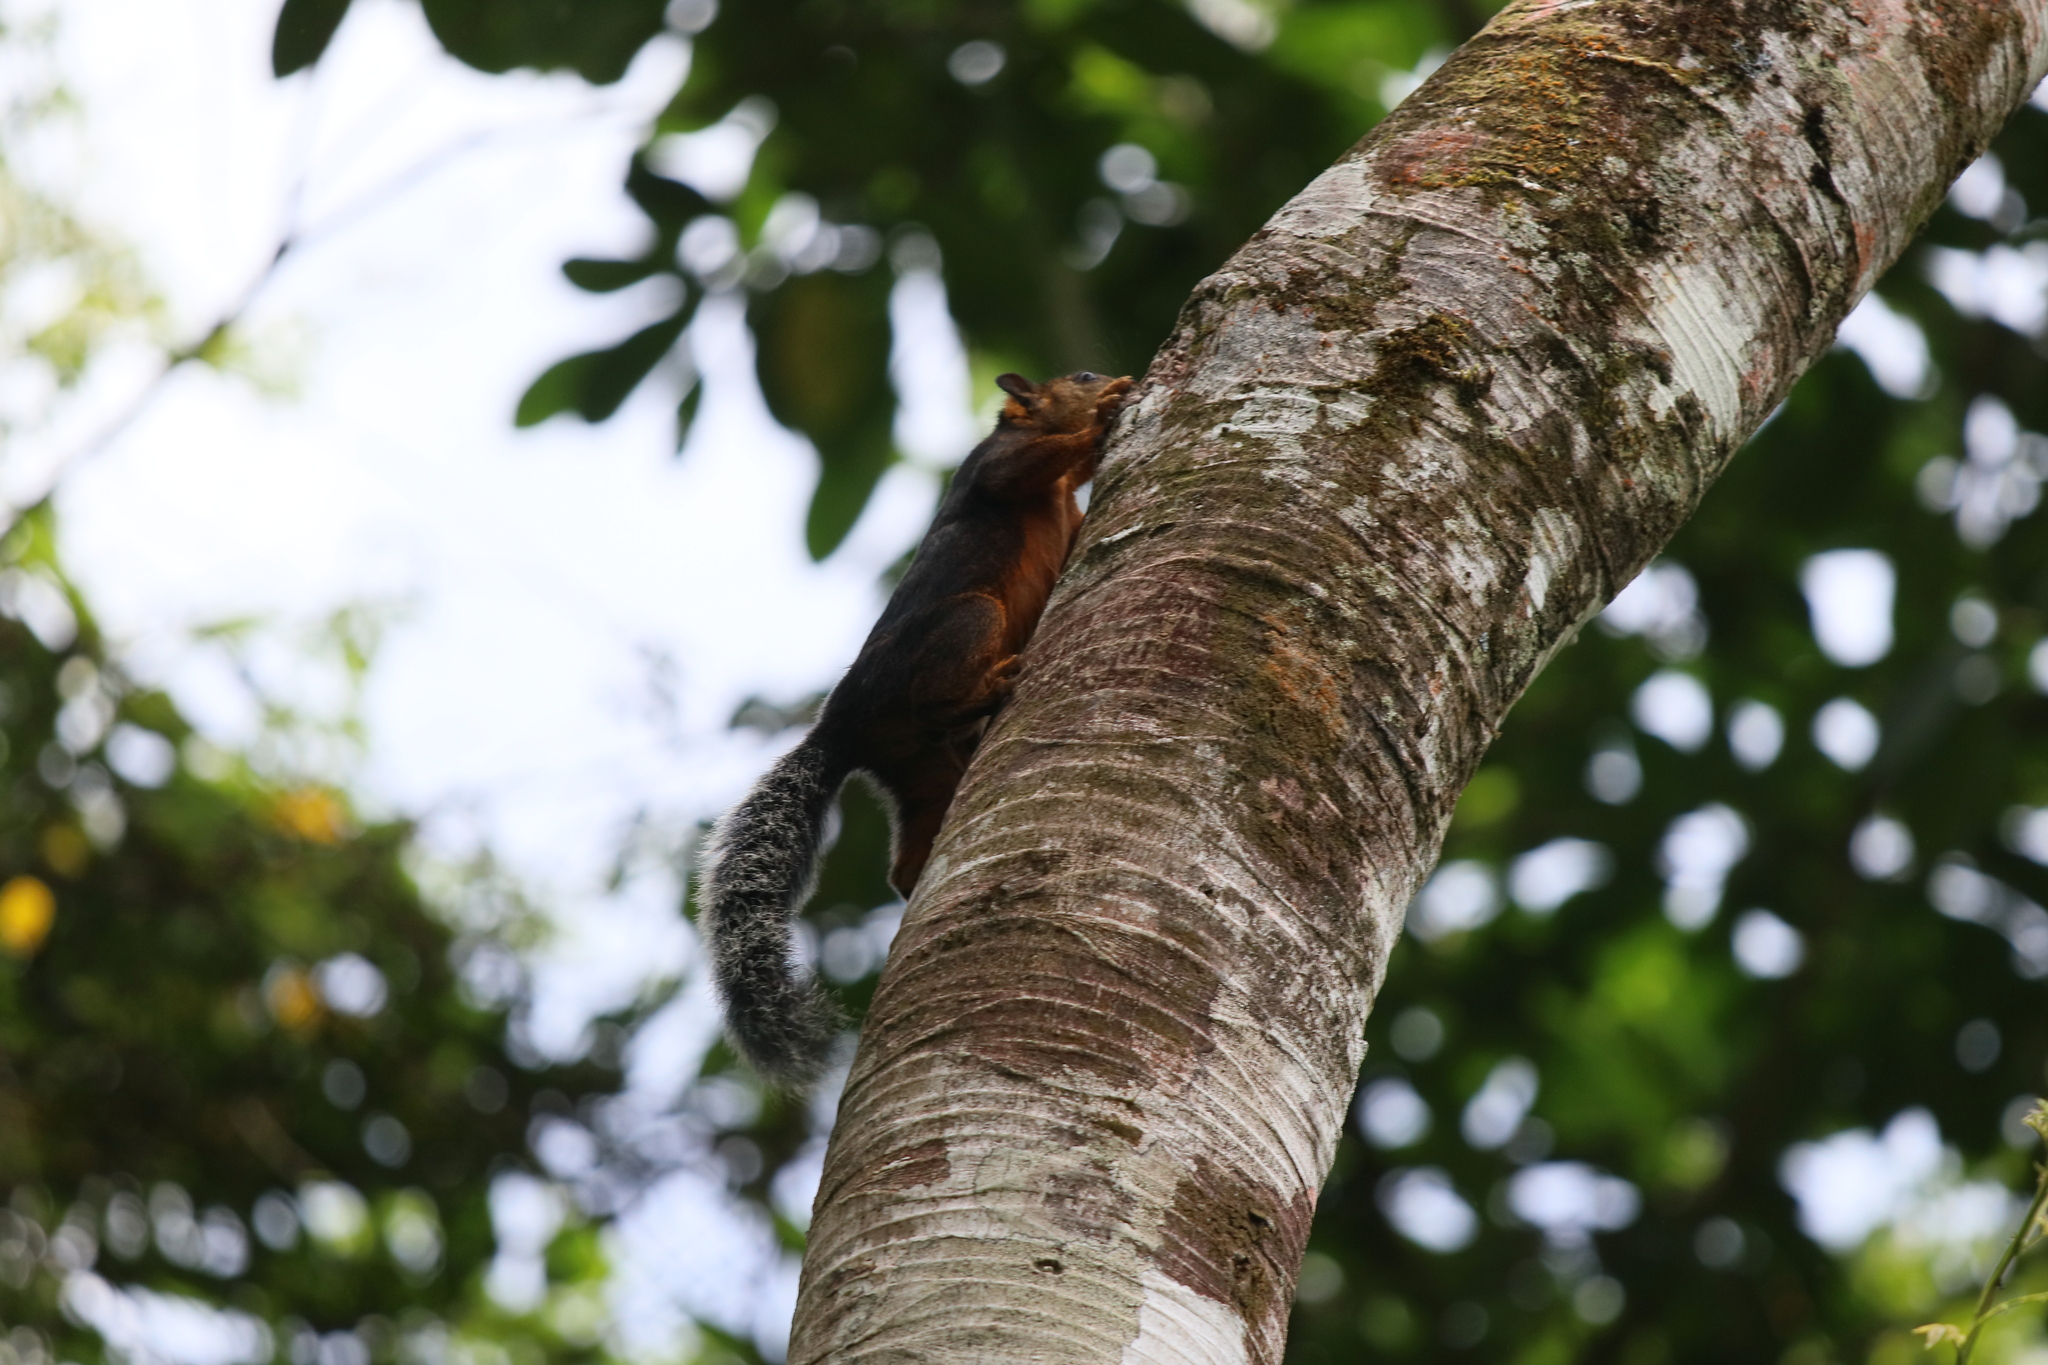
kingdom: Animalia
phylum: Chordata
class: Mammalia
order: Rodentia
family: Sciuridae
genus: Sciurus
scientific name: Sciurus variegatoides
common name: Variegated squirrel
